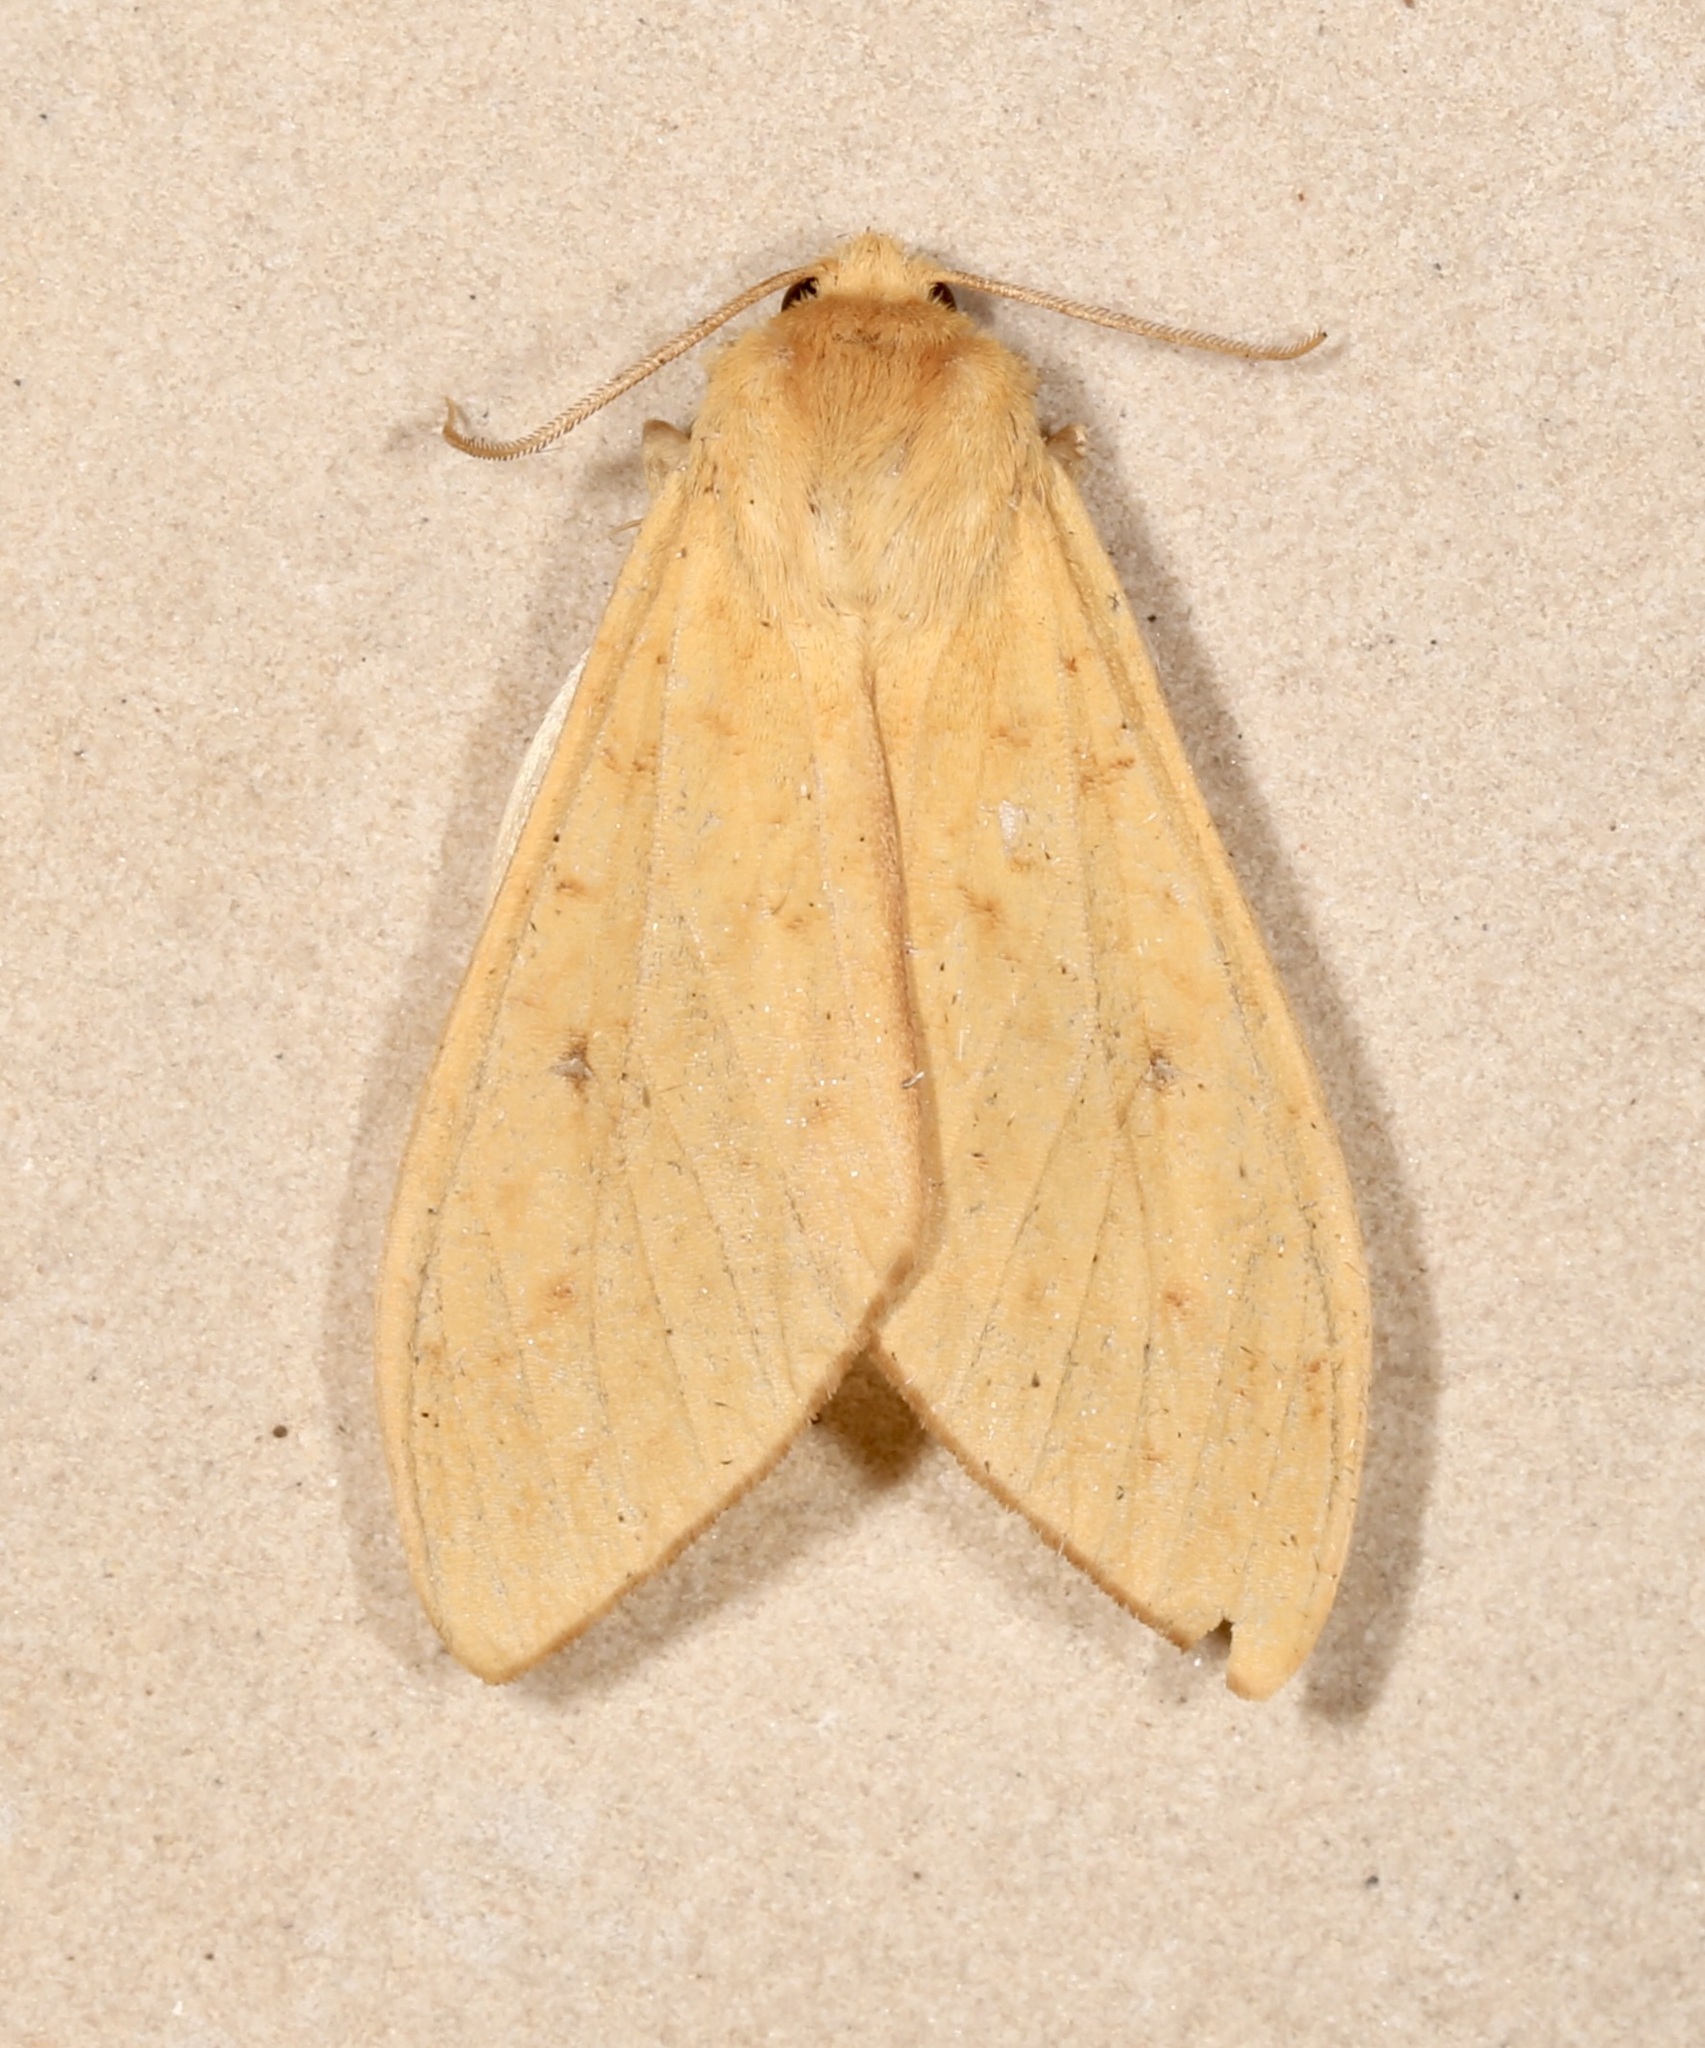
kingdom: Animalia
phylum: Arthropoda
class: Insecta
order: Lepidoptera
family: Erebidae
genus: Lophocampa
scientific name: Lophocampa pura
